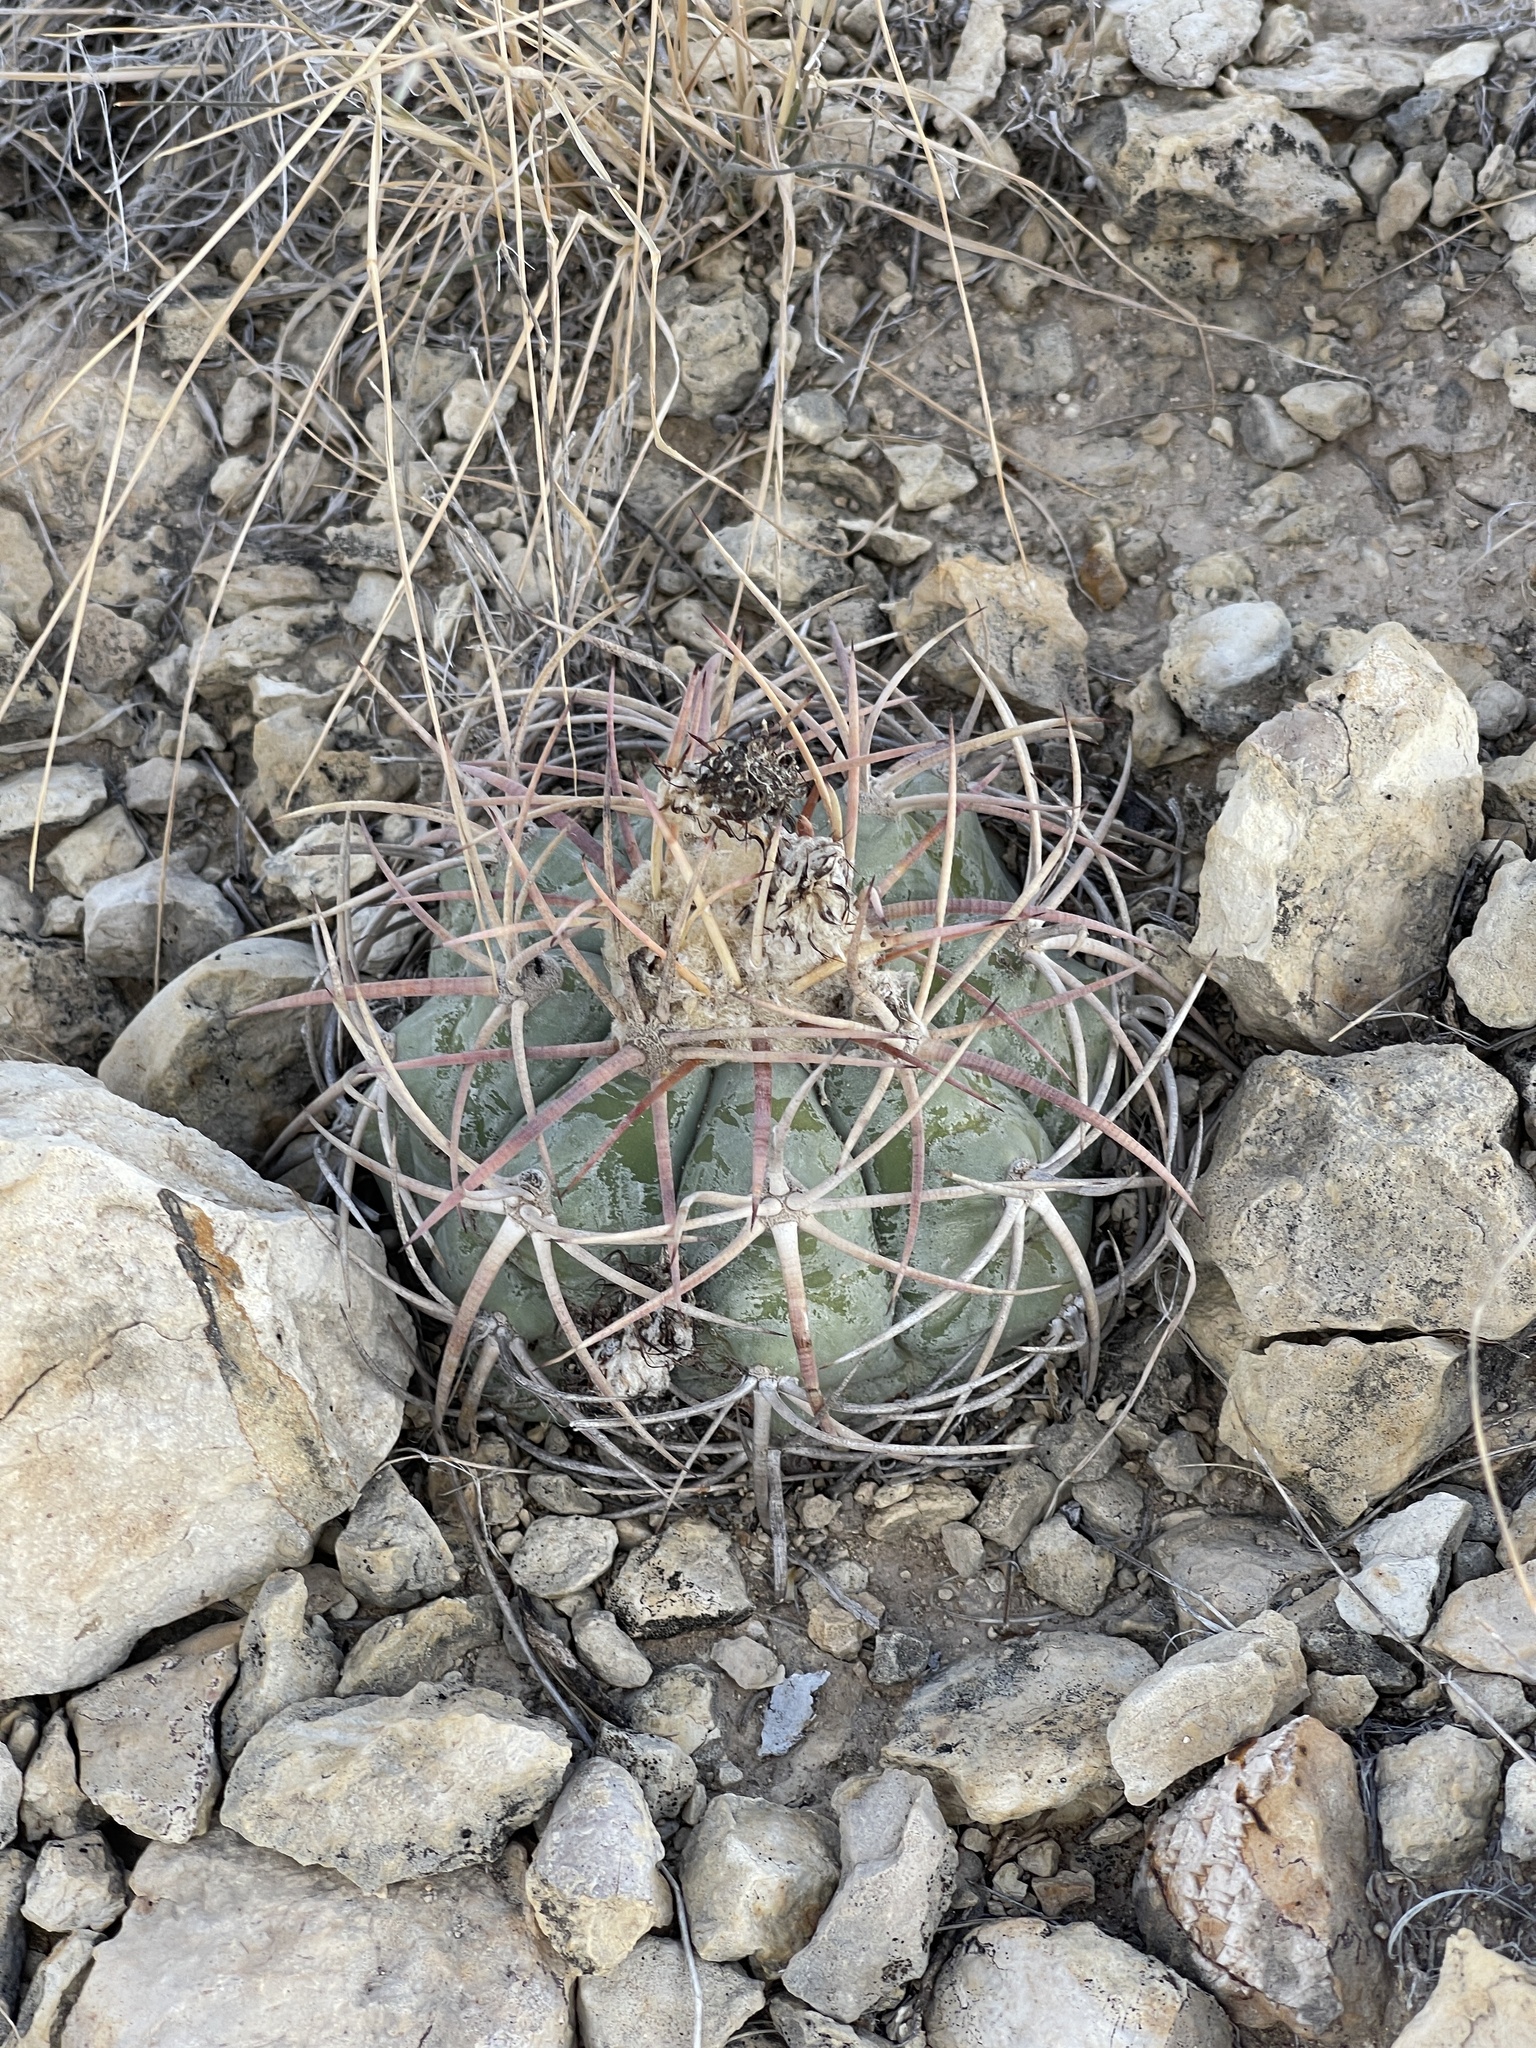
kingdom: Plantae
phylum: Tracheophyta
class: Magnoliopsida
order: Caryophyllales
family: Cactaceae
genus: Echinocactus
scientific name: Echinocactus horizonthalonius
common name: Devilshead
